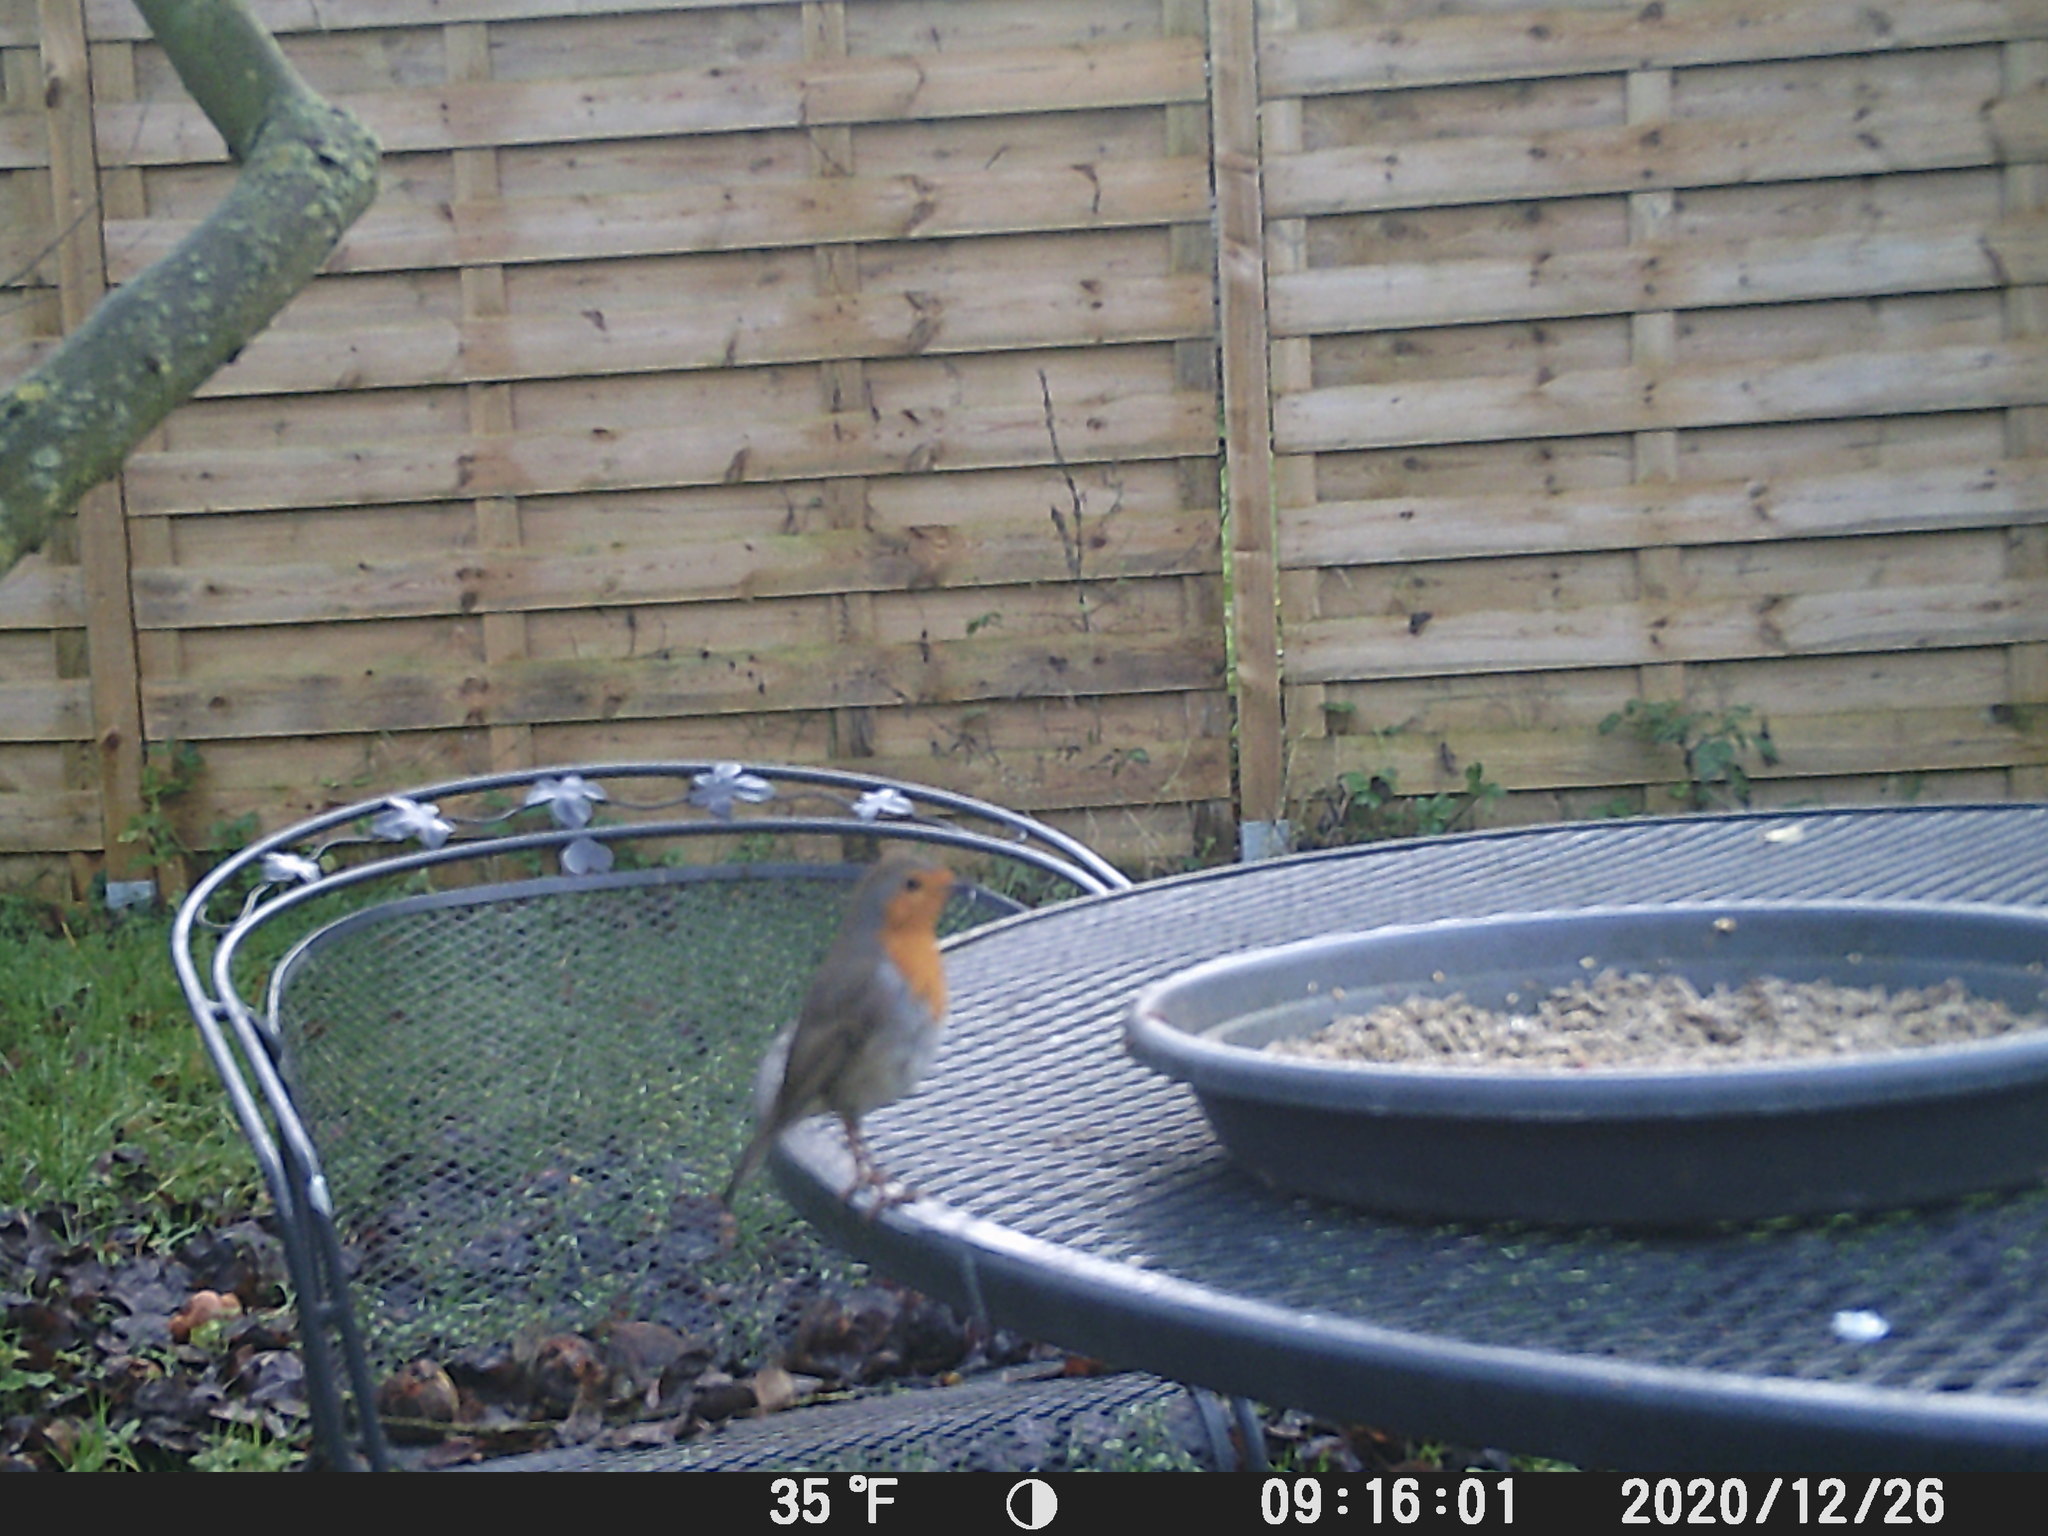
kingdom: Animalia
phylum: Chordata
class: Aves
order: Passeriformes
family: Muscicapidae
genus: Erithacus
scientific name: Erithacus rubecula
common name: European robin
